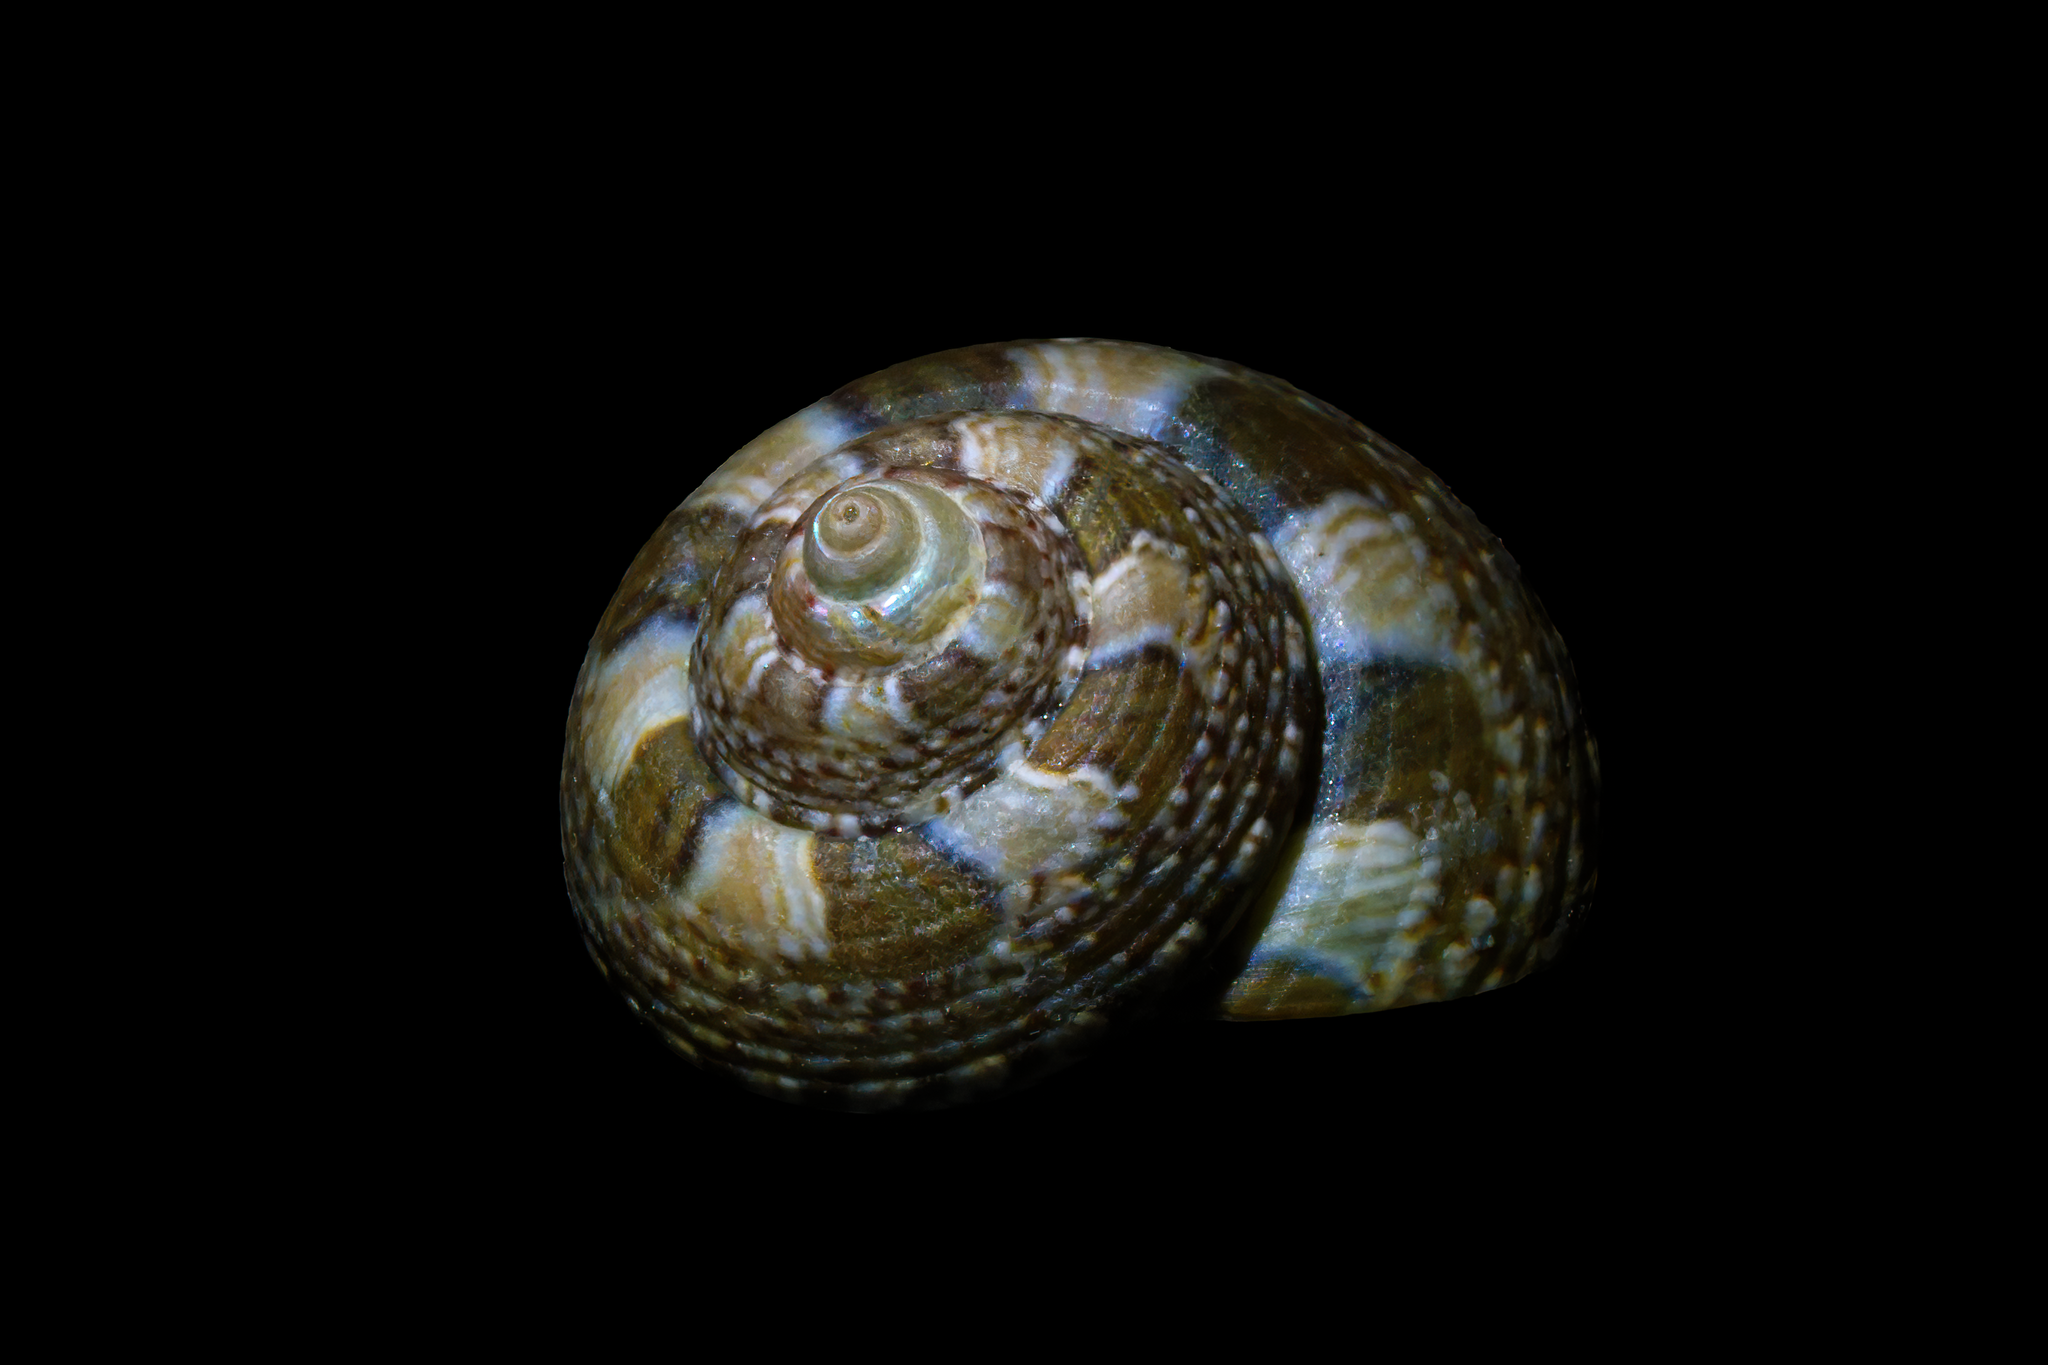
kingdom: Animalia
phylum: Mollusca
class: Gastropoda
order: Trochida
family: Trochidae
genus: Steromphala
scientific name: Steromphala umbilicaris
